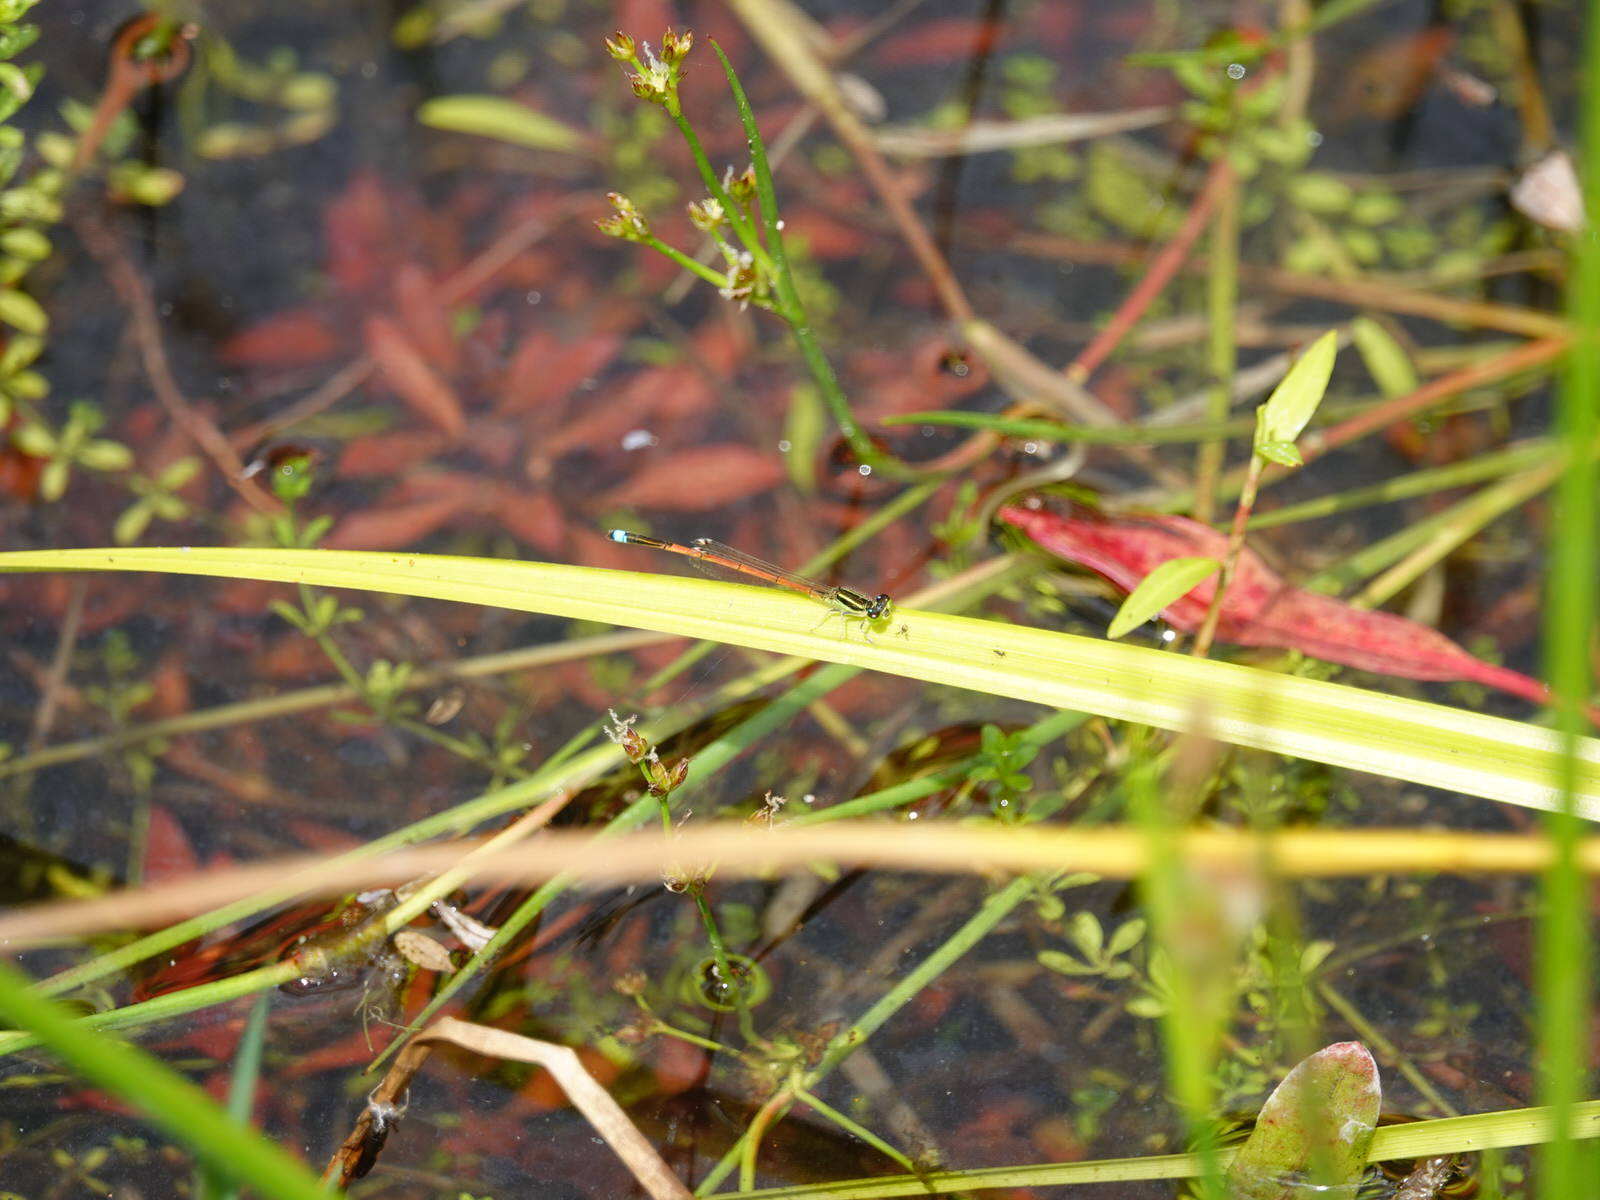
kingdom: Animalia
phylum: Arthropoda
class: Insecta
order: Odonata
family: Coenagrionidae
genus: Ischnura
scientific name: Ischnura aurora
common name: Gossamer damselfly
